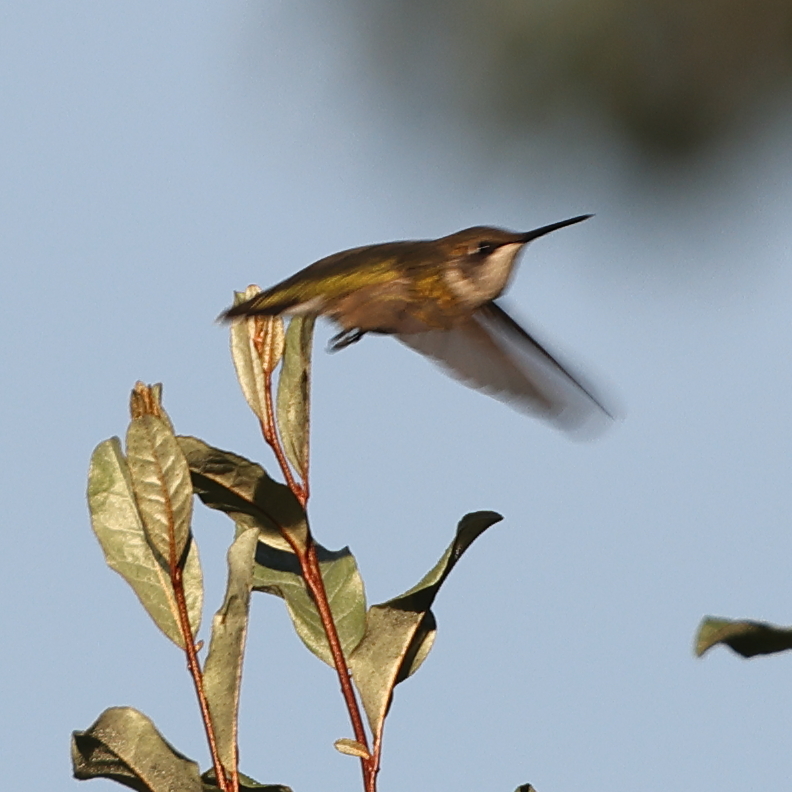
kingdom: Animalia
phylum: Chordata
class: Aves
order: Apodiformes
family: Trochilidae
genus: Archilochus
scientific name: Archilochus colubris
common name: Ruby-throated hummingbird
